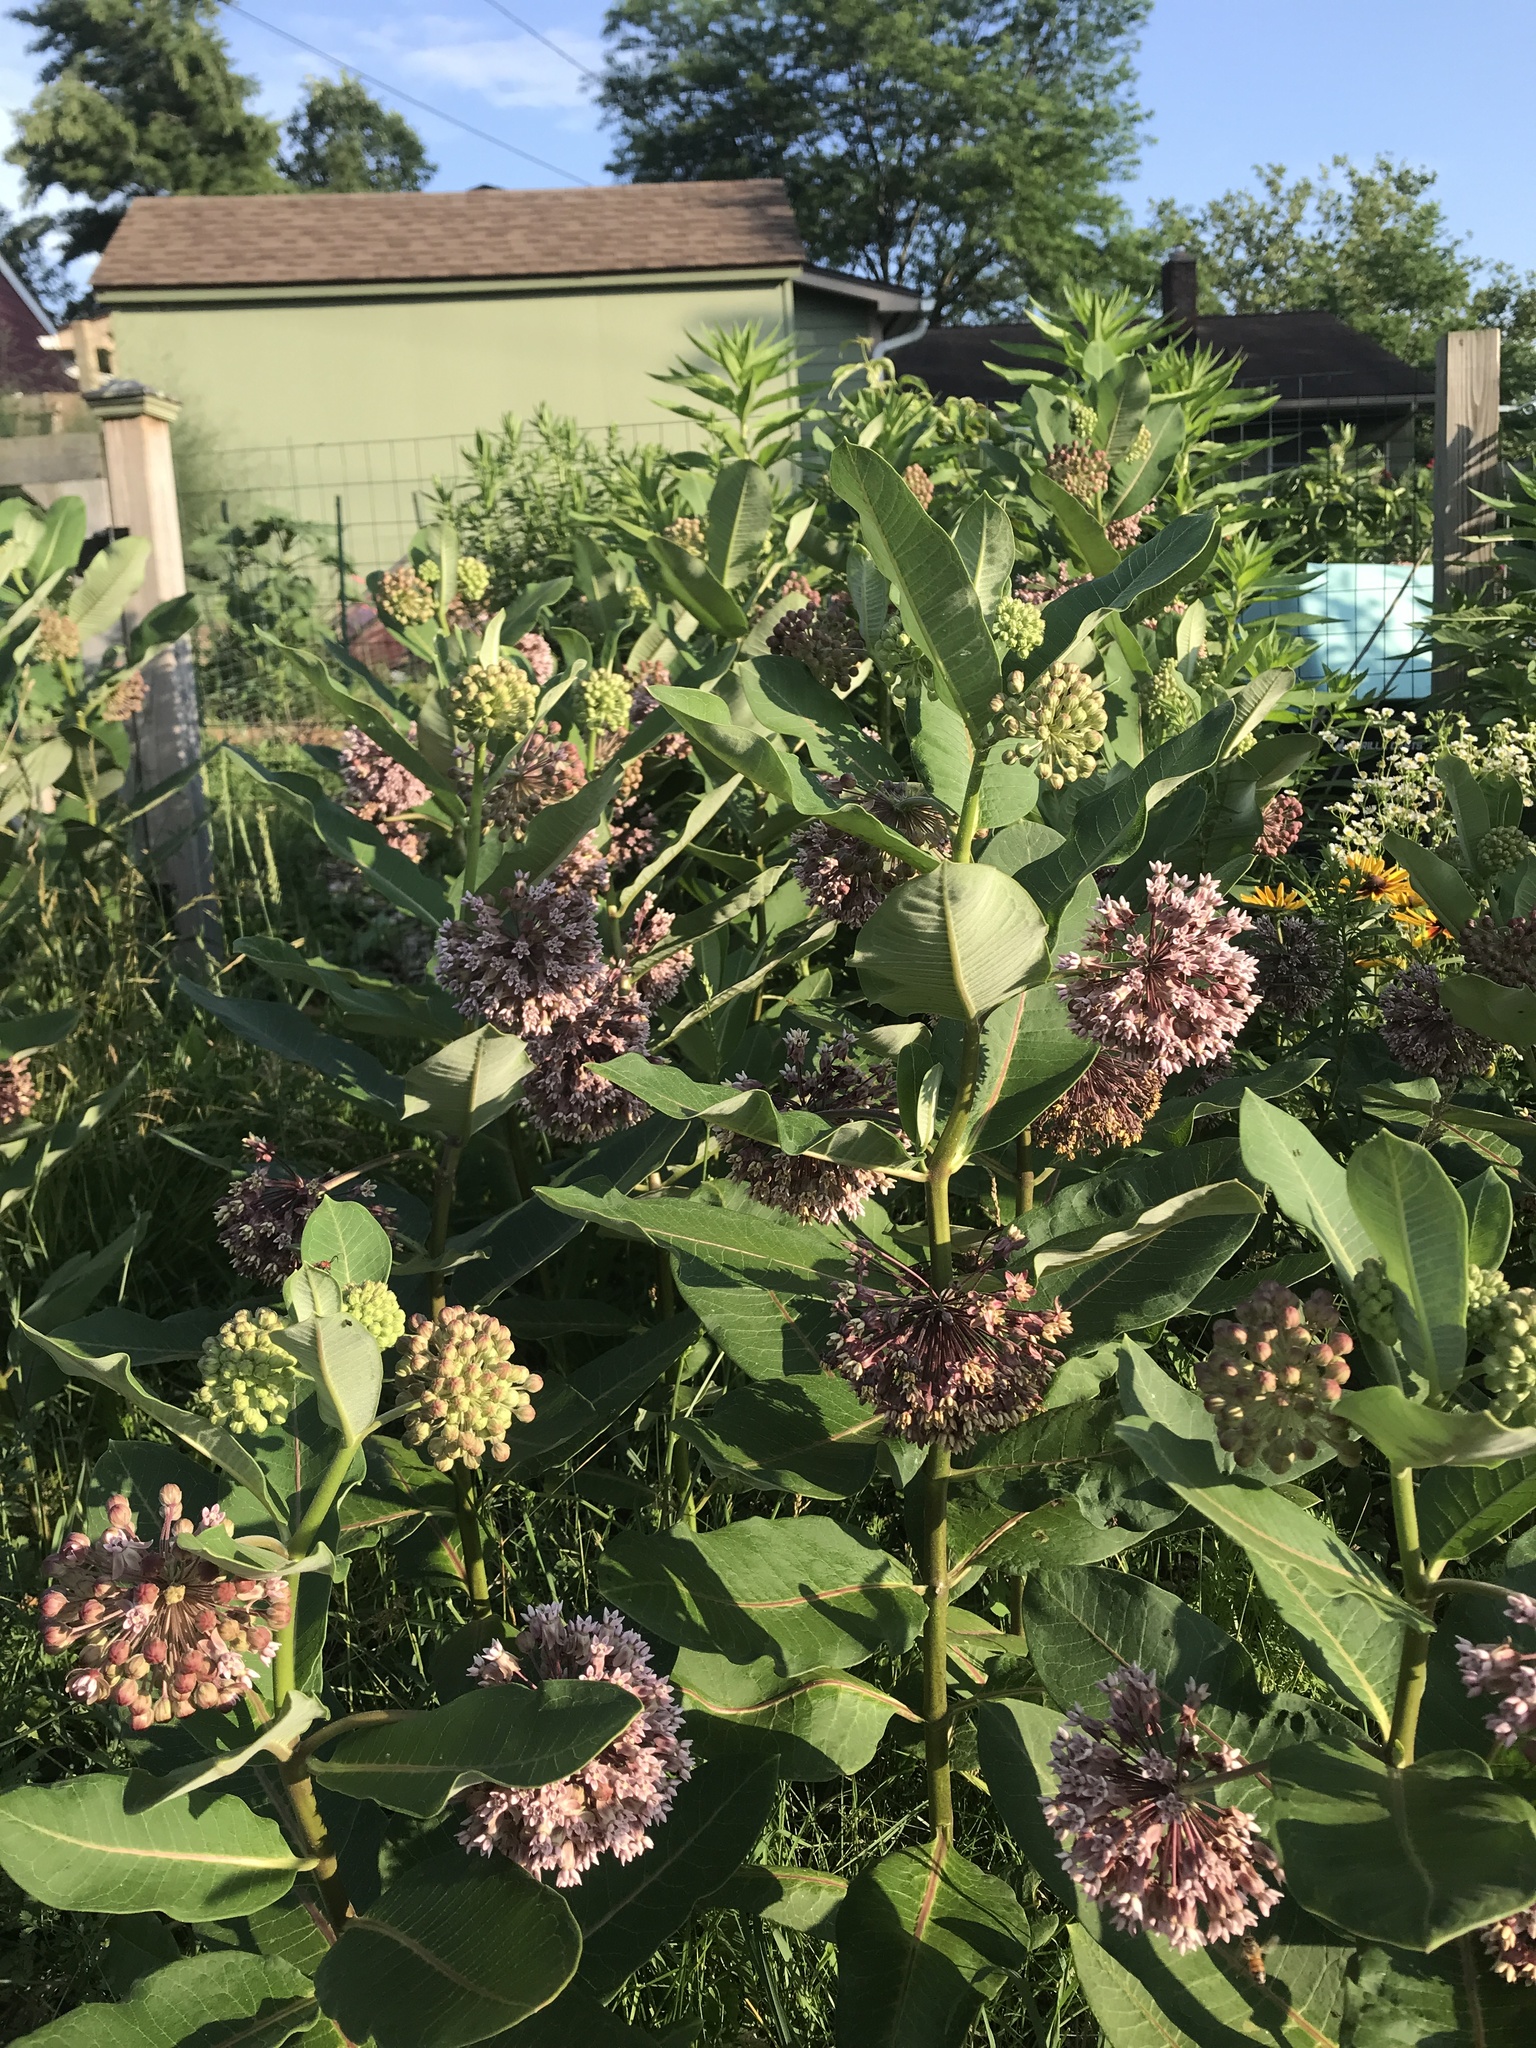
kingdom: Plantae
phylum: Tracheophyta
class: Magnoliopsida
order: Gentianales
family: Apocynaceae
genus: Asclepias
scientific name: Asclepias syriaca
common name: Common milkweed
